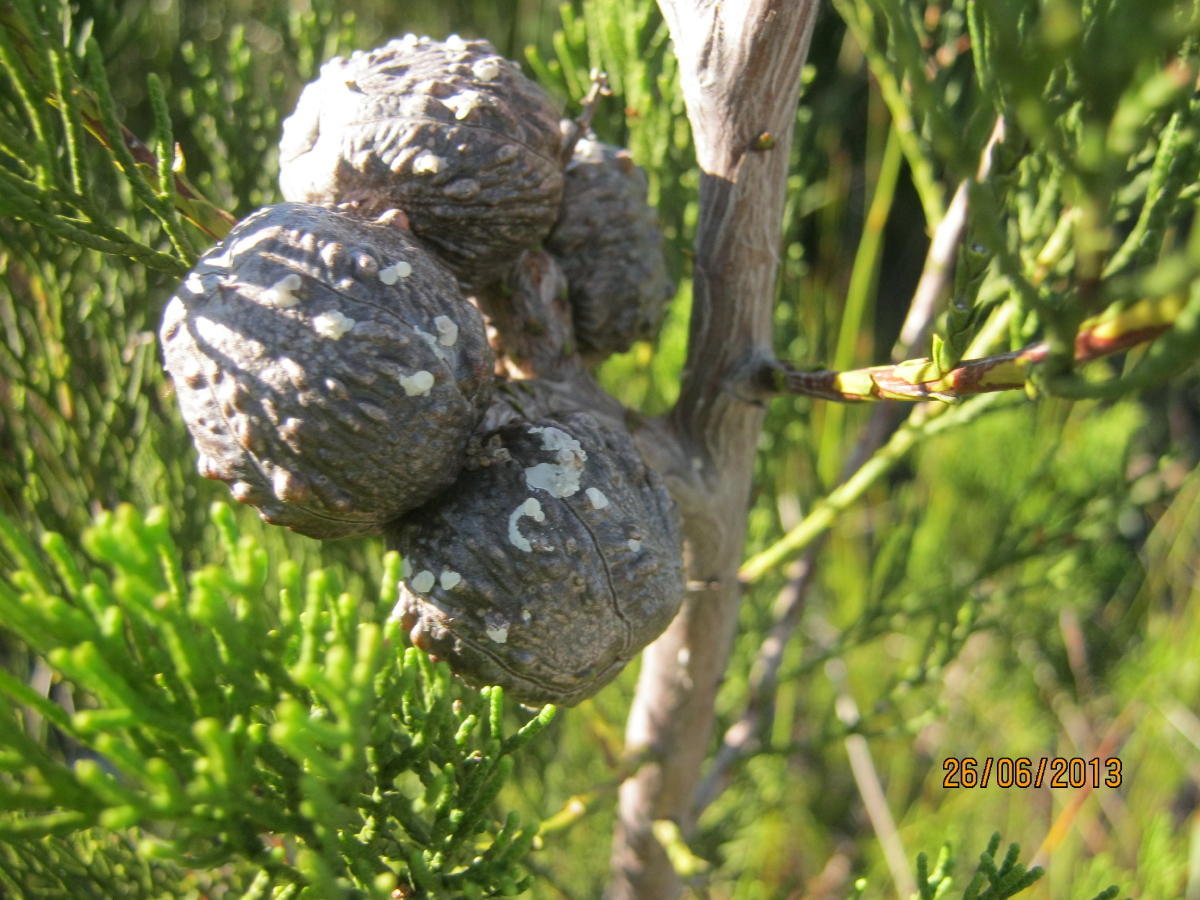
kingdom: Plantae
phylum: Tracheophyta
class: Pinopsida
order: Pinales
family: Cupressaceae
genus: Widdringtonia
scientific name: Widdringtonia nodiflora
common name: Cape cypress
